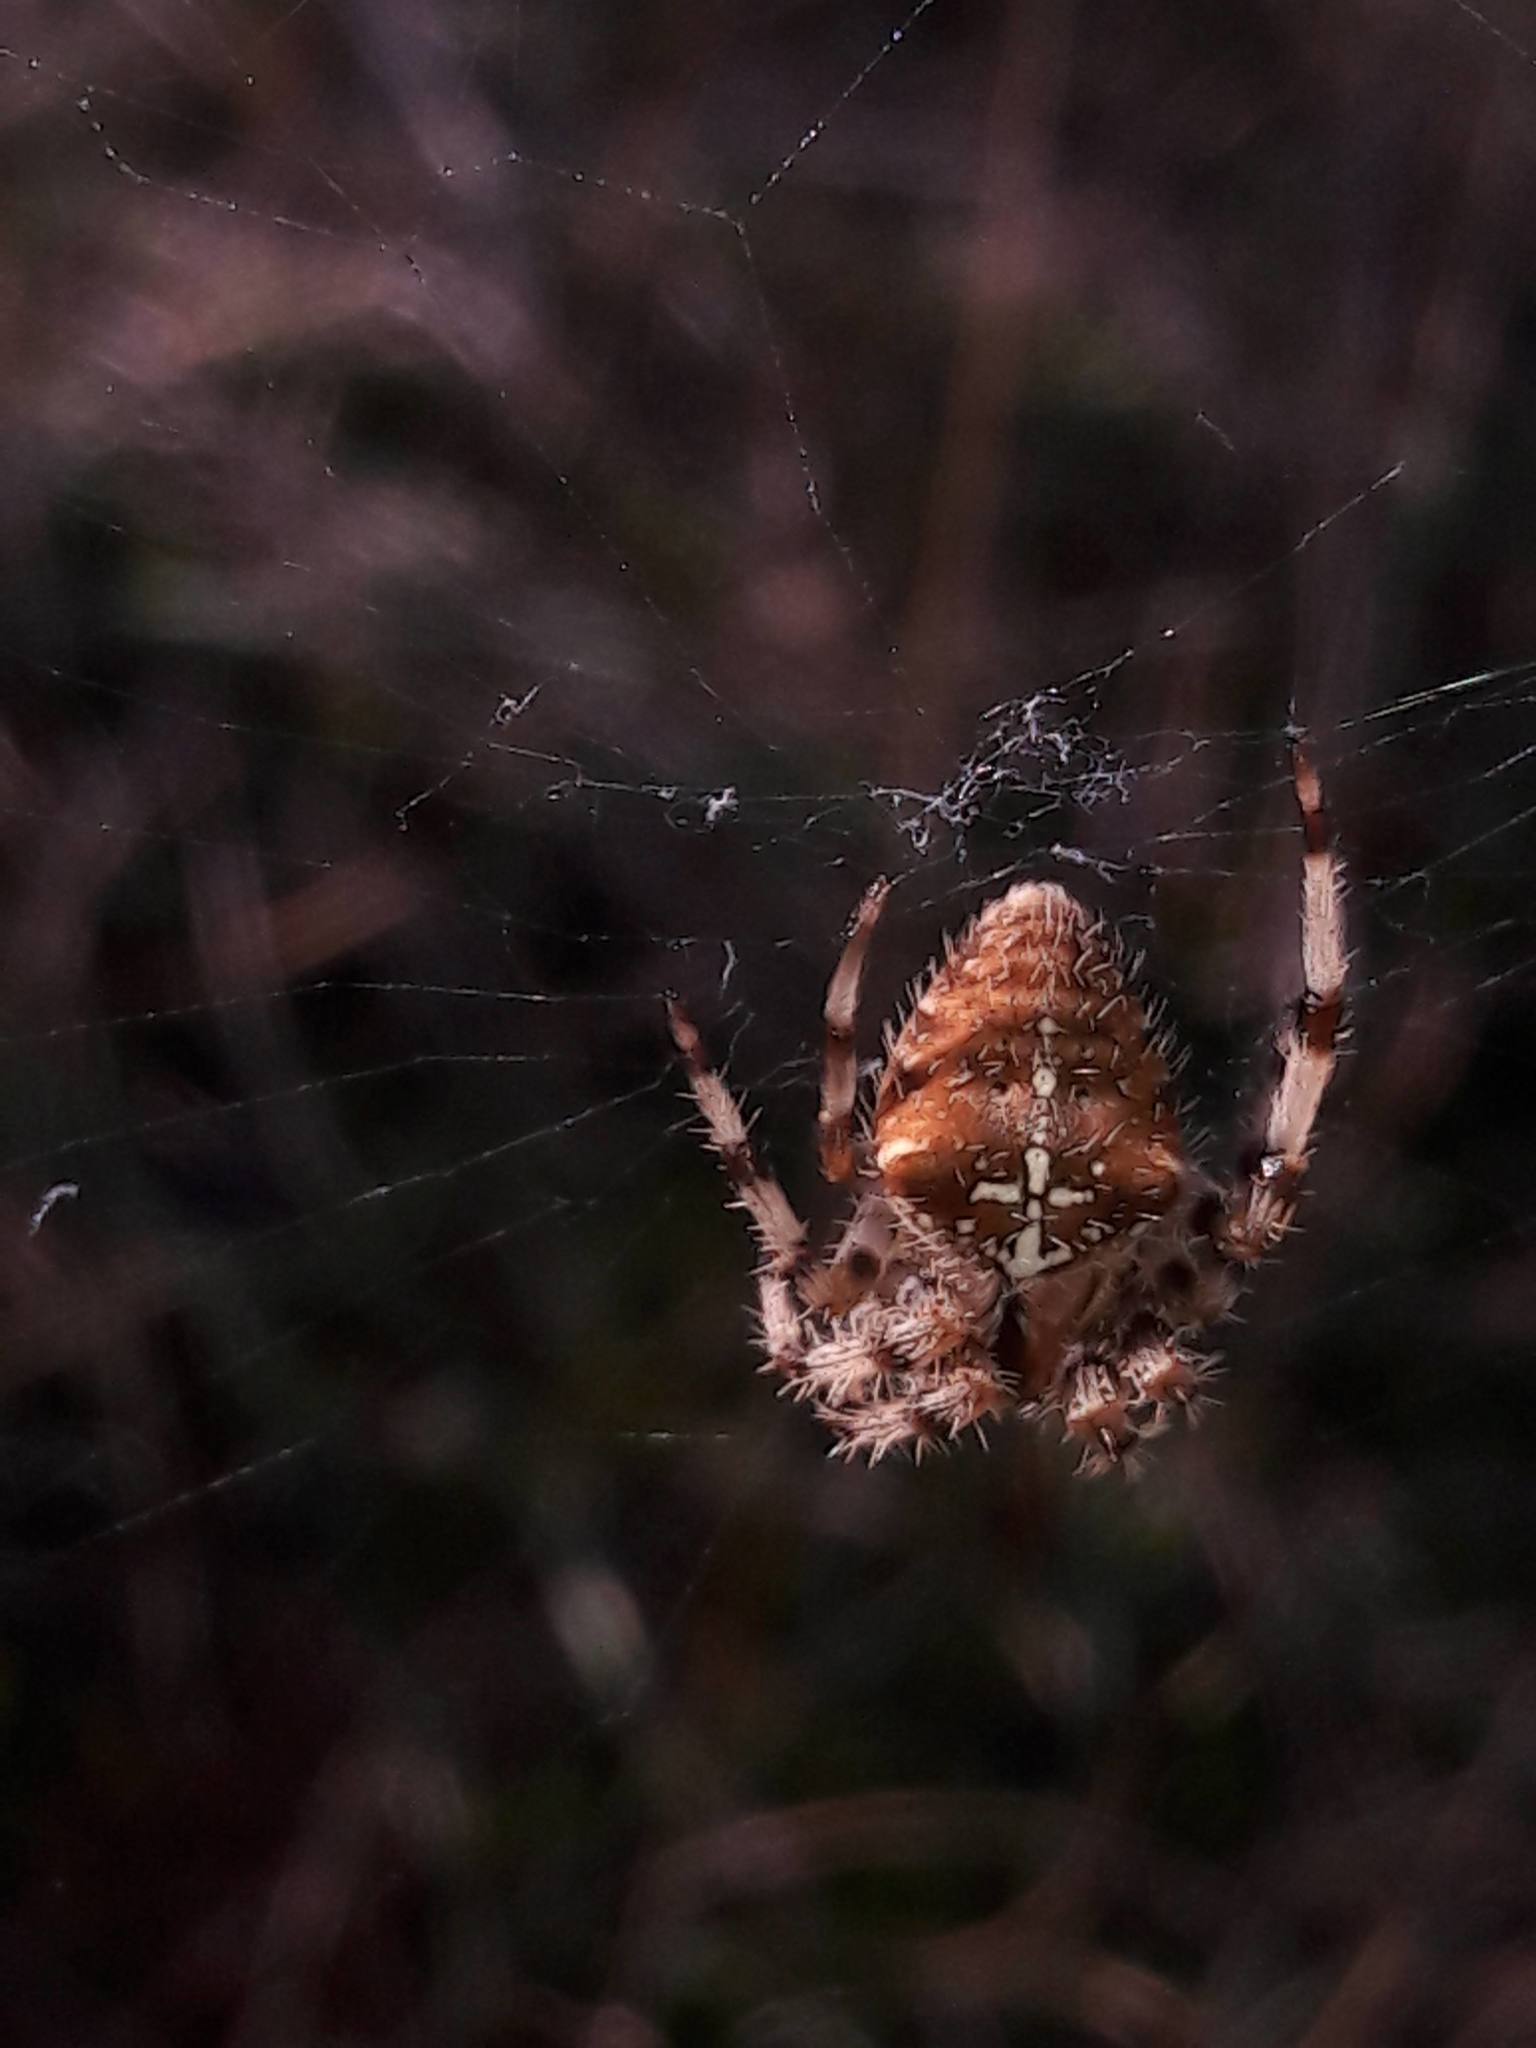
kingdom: Animalia
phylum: Arthropoda
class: Arachnida
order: Araneae
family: Araneidae
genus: Araneus
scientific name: Araneus pallidus
